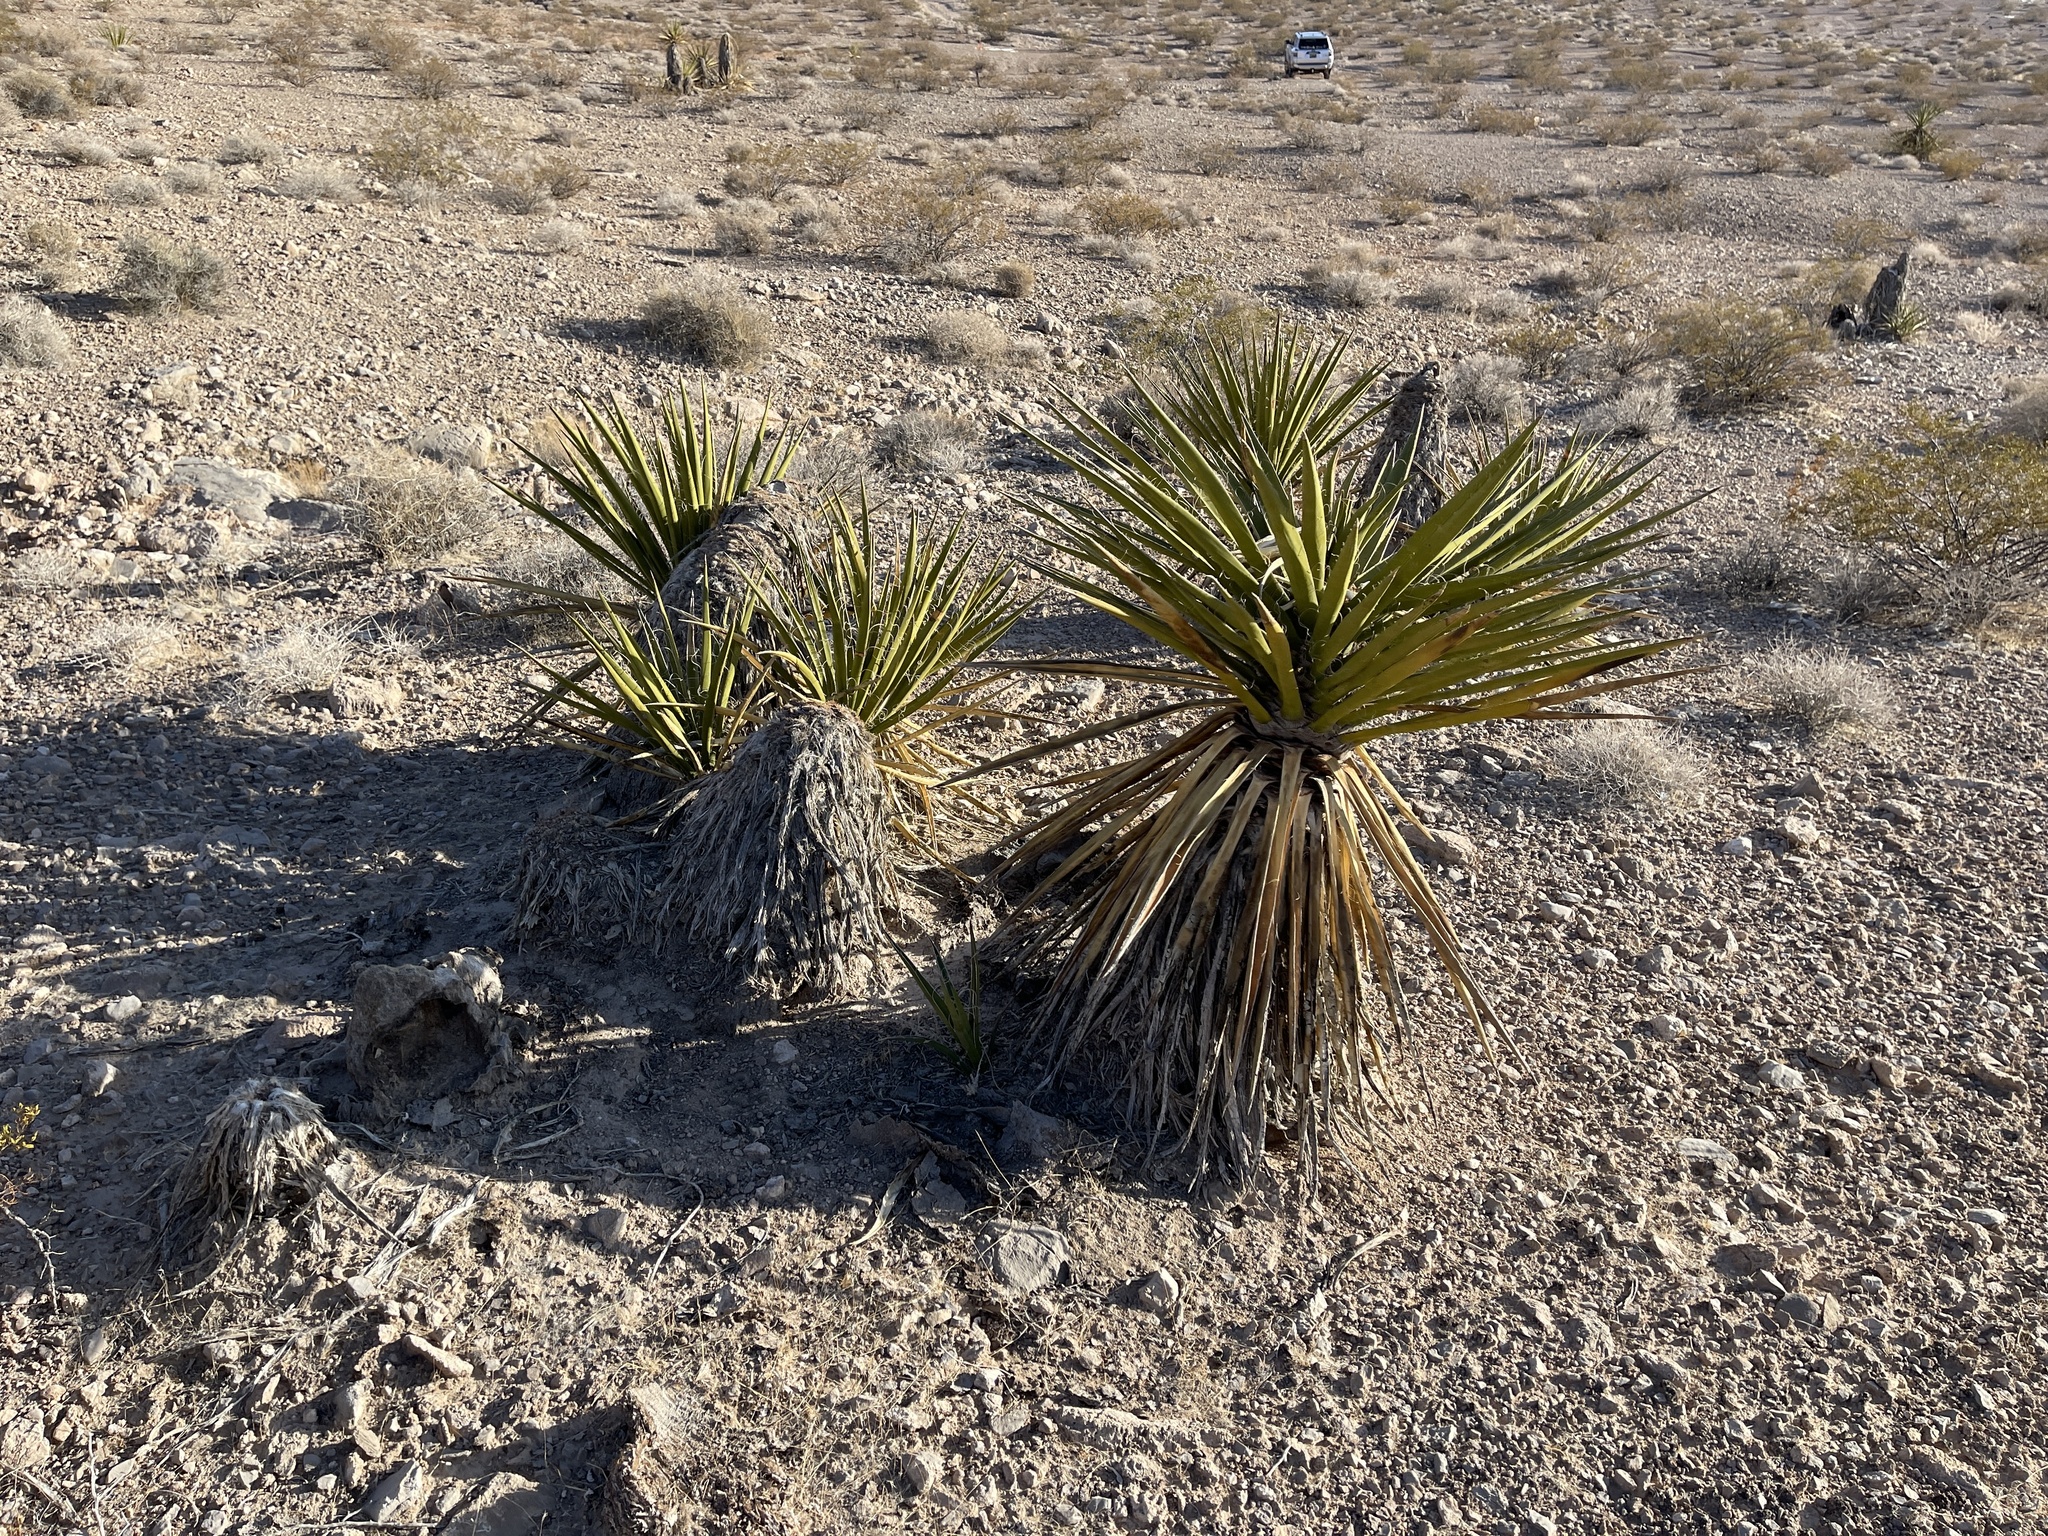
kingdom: Plantae
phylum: Tracheophyta
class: Liliopsida
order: Asparagales
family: Asparagaceae
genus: Yucca
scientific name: Yucca schidigera
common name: Mojave yucca
